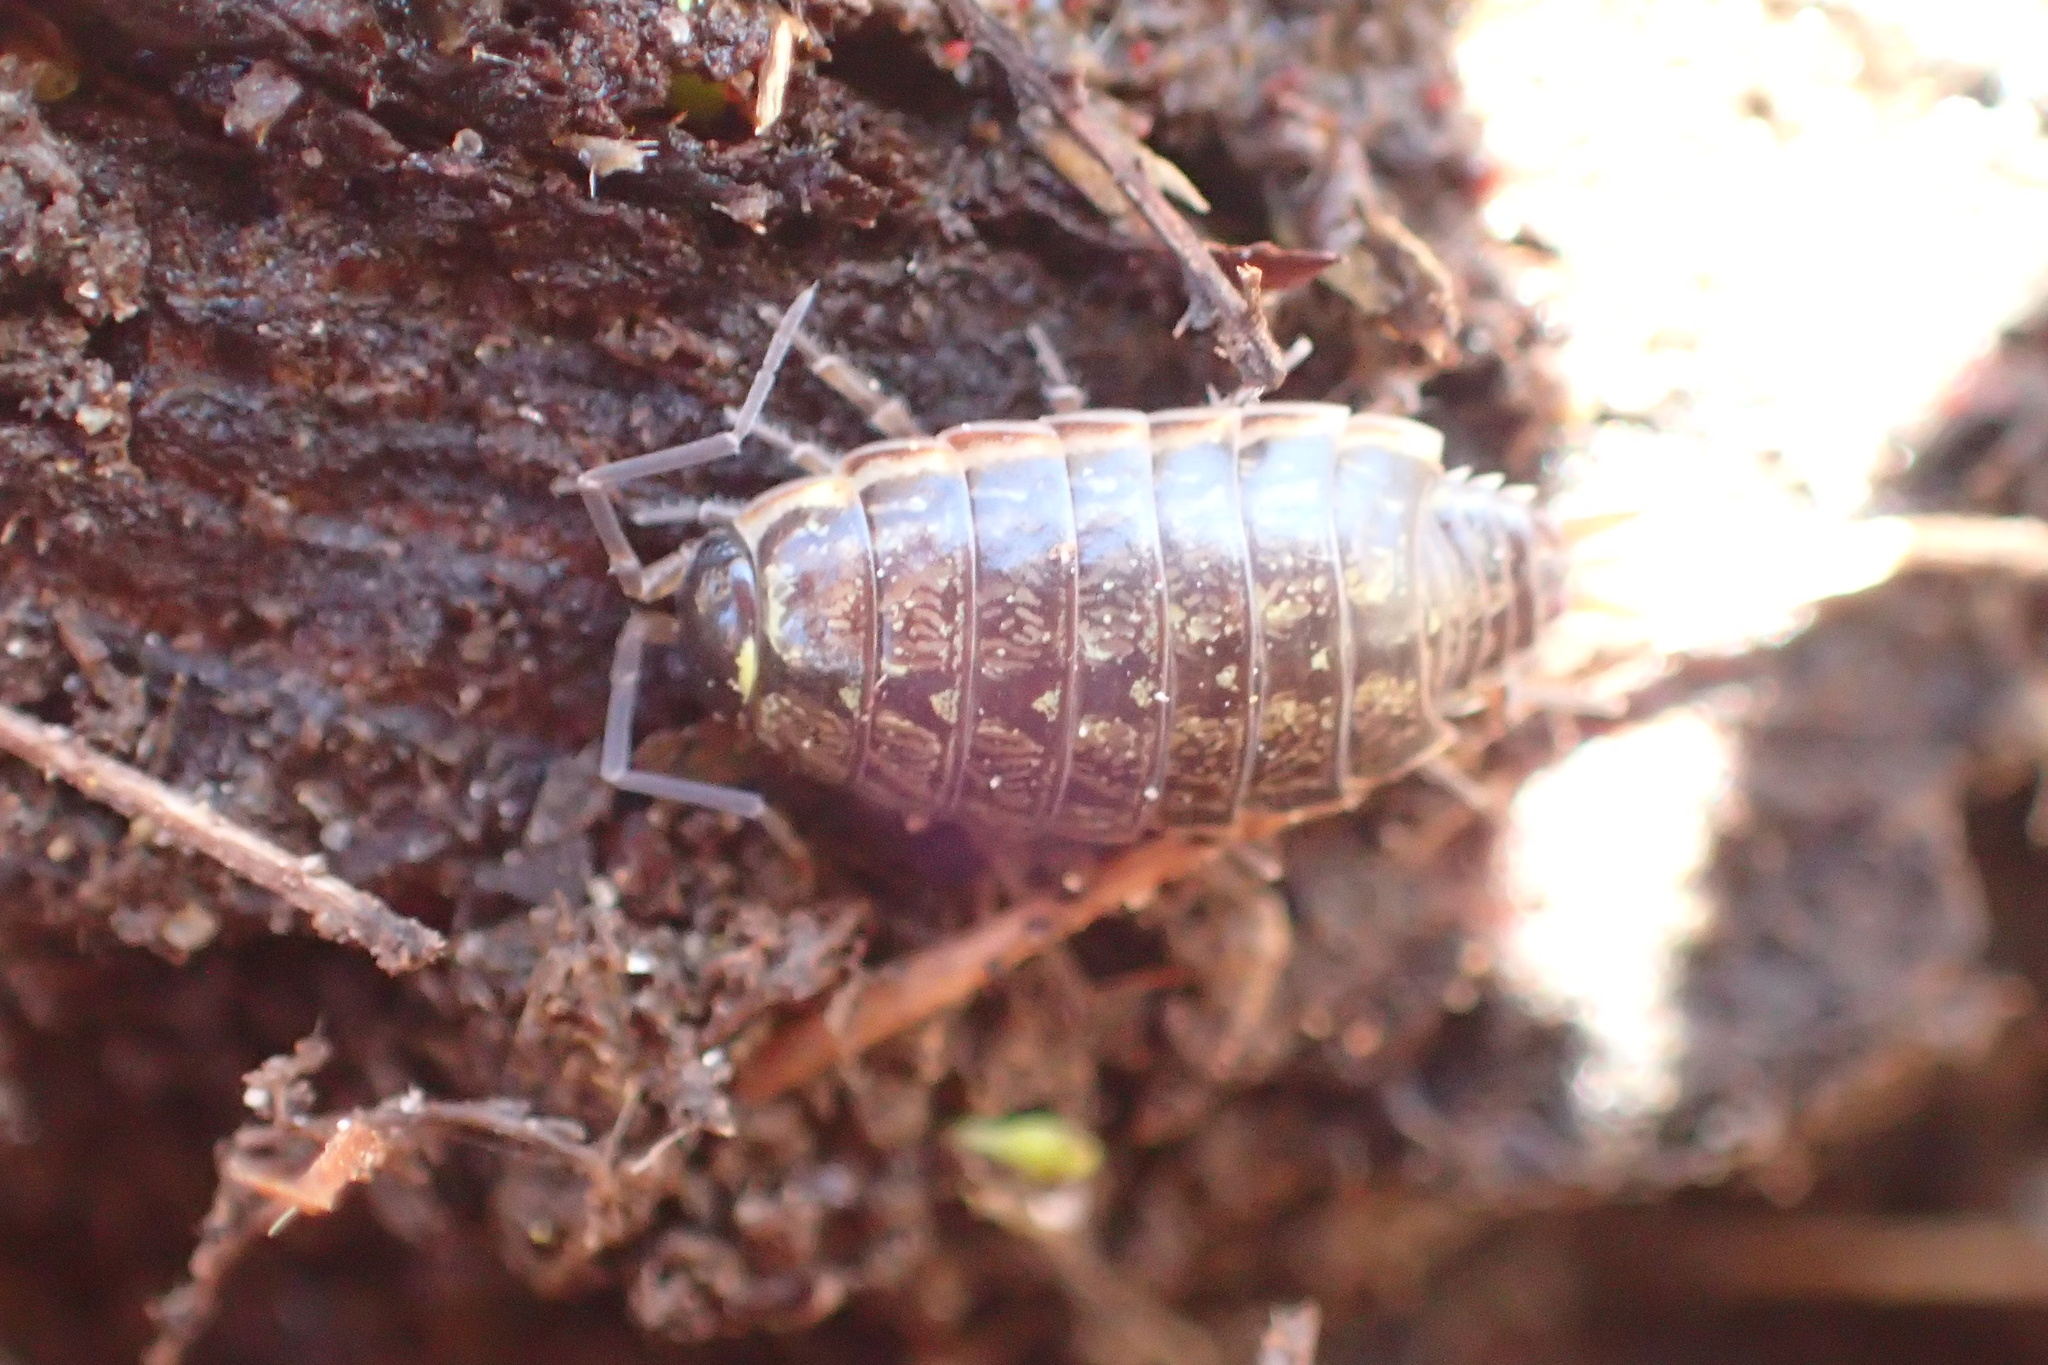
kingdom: Animalia
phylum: Arthropoda
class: Malacostraca
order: Isopoda
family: Philosciidae
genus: Philoscia
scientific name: Philoscia muscorum
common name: Common striped woodlouse
